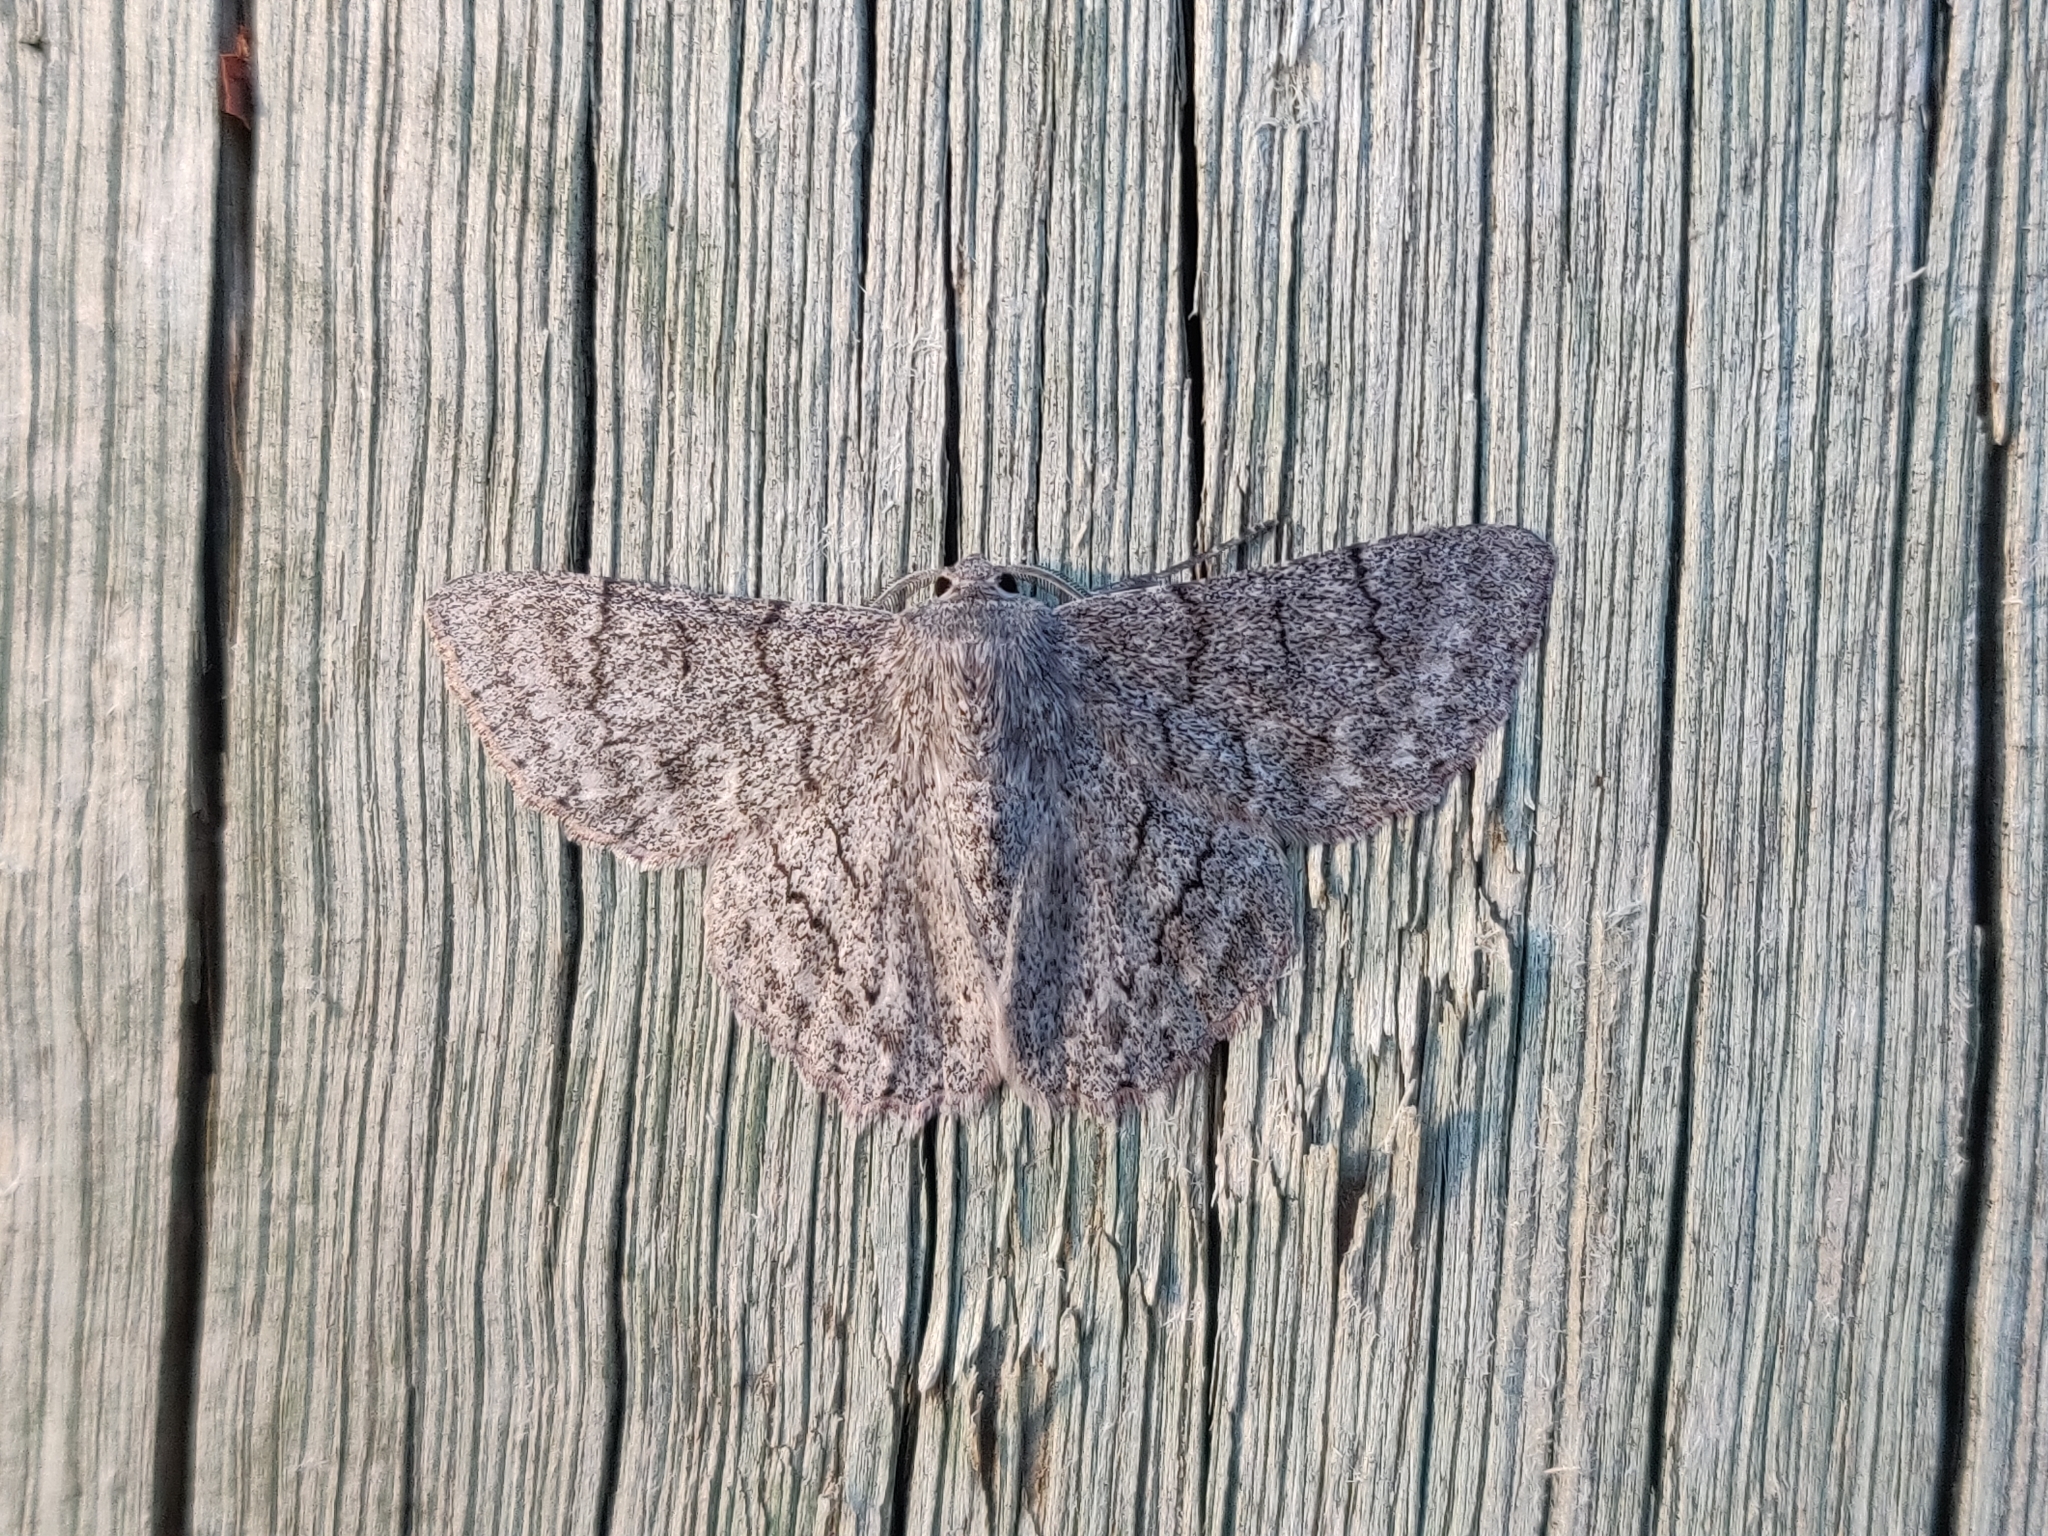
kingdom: Animalia
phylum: Arthropoda
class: Insecta
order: Lepidoptera
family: Geometridae
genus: Crypsiphona
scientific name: Crypsiphona ocultaria
